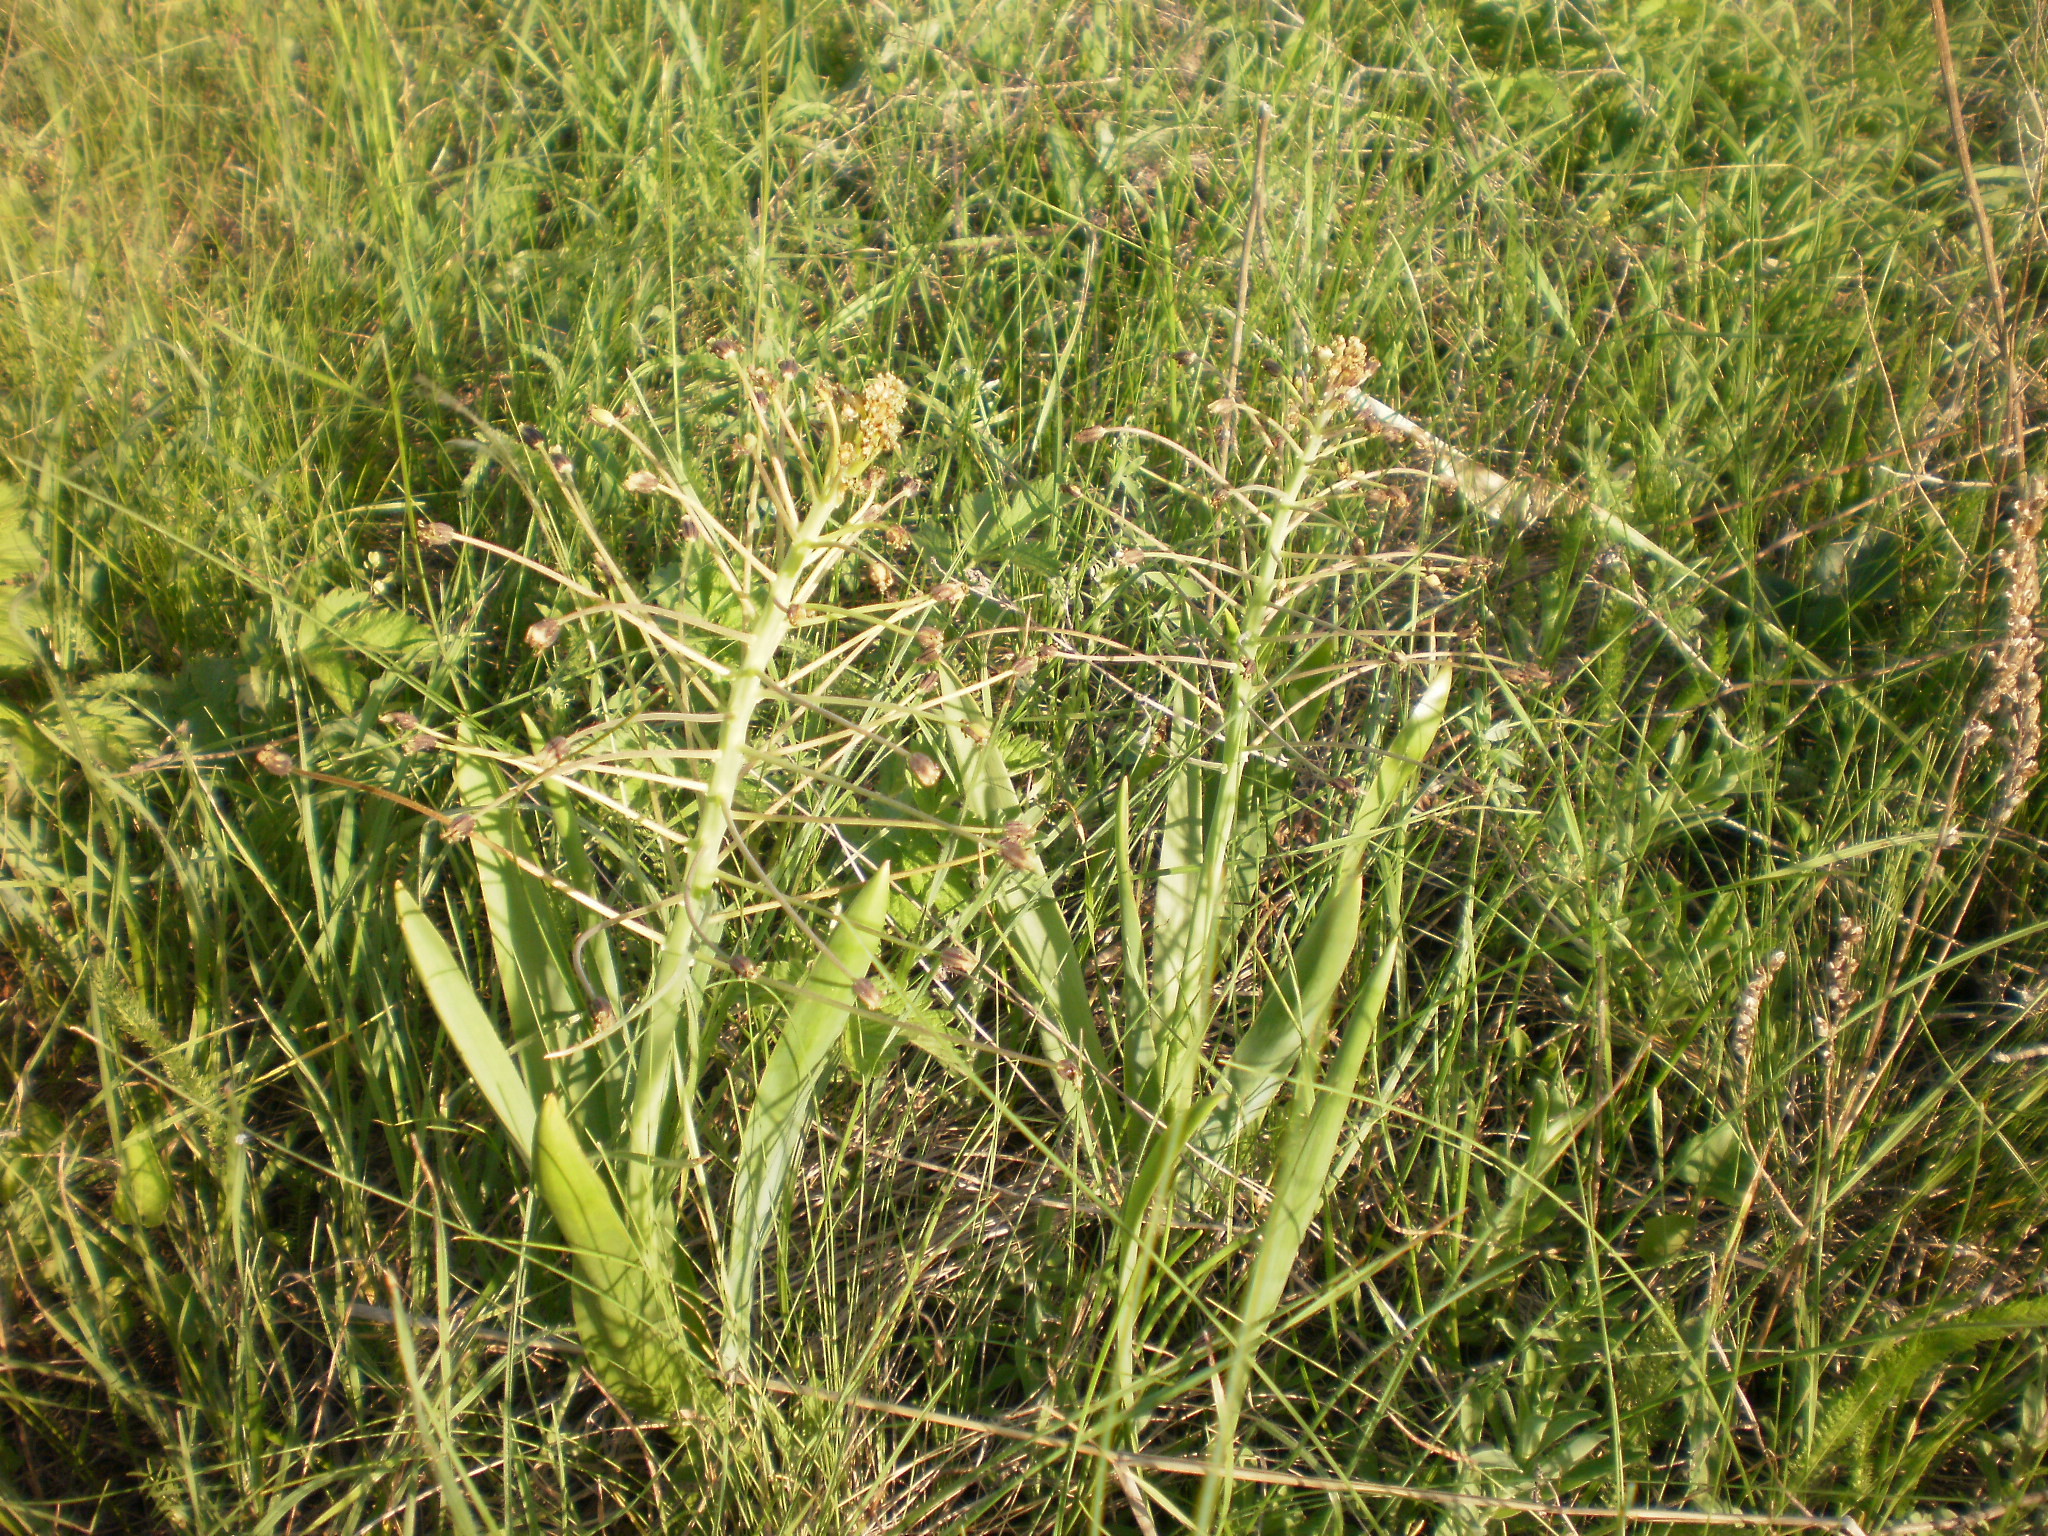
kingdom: Plantae
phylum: Tracheophyta
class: Liliopsida
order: Asparagales
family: Asparagaceae
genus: Bellevalia
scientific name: Bellevalia speciosa
